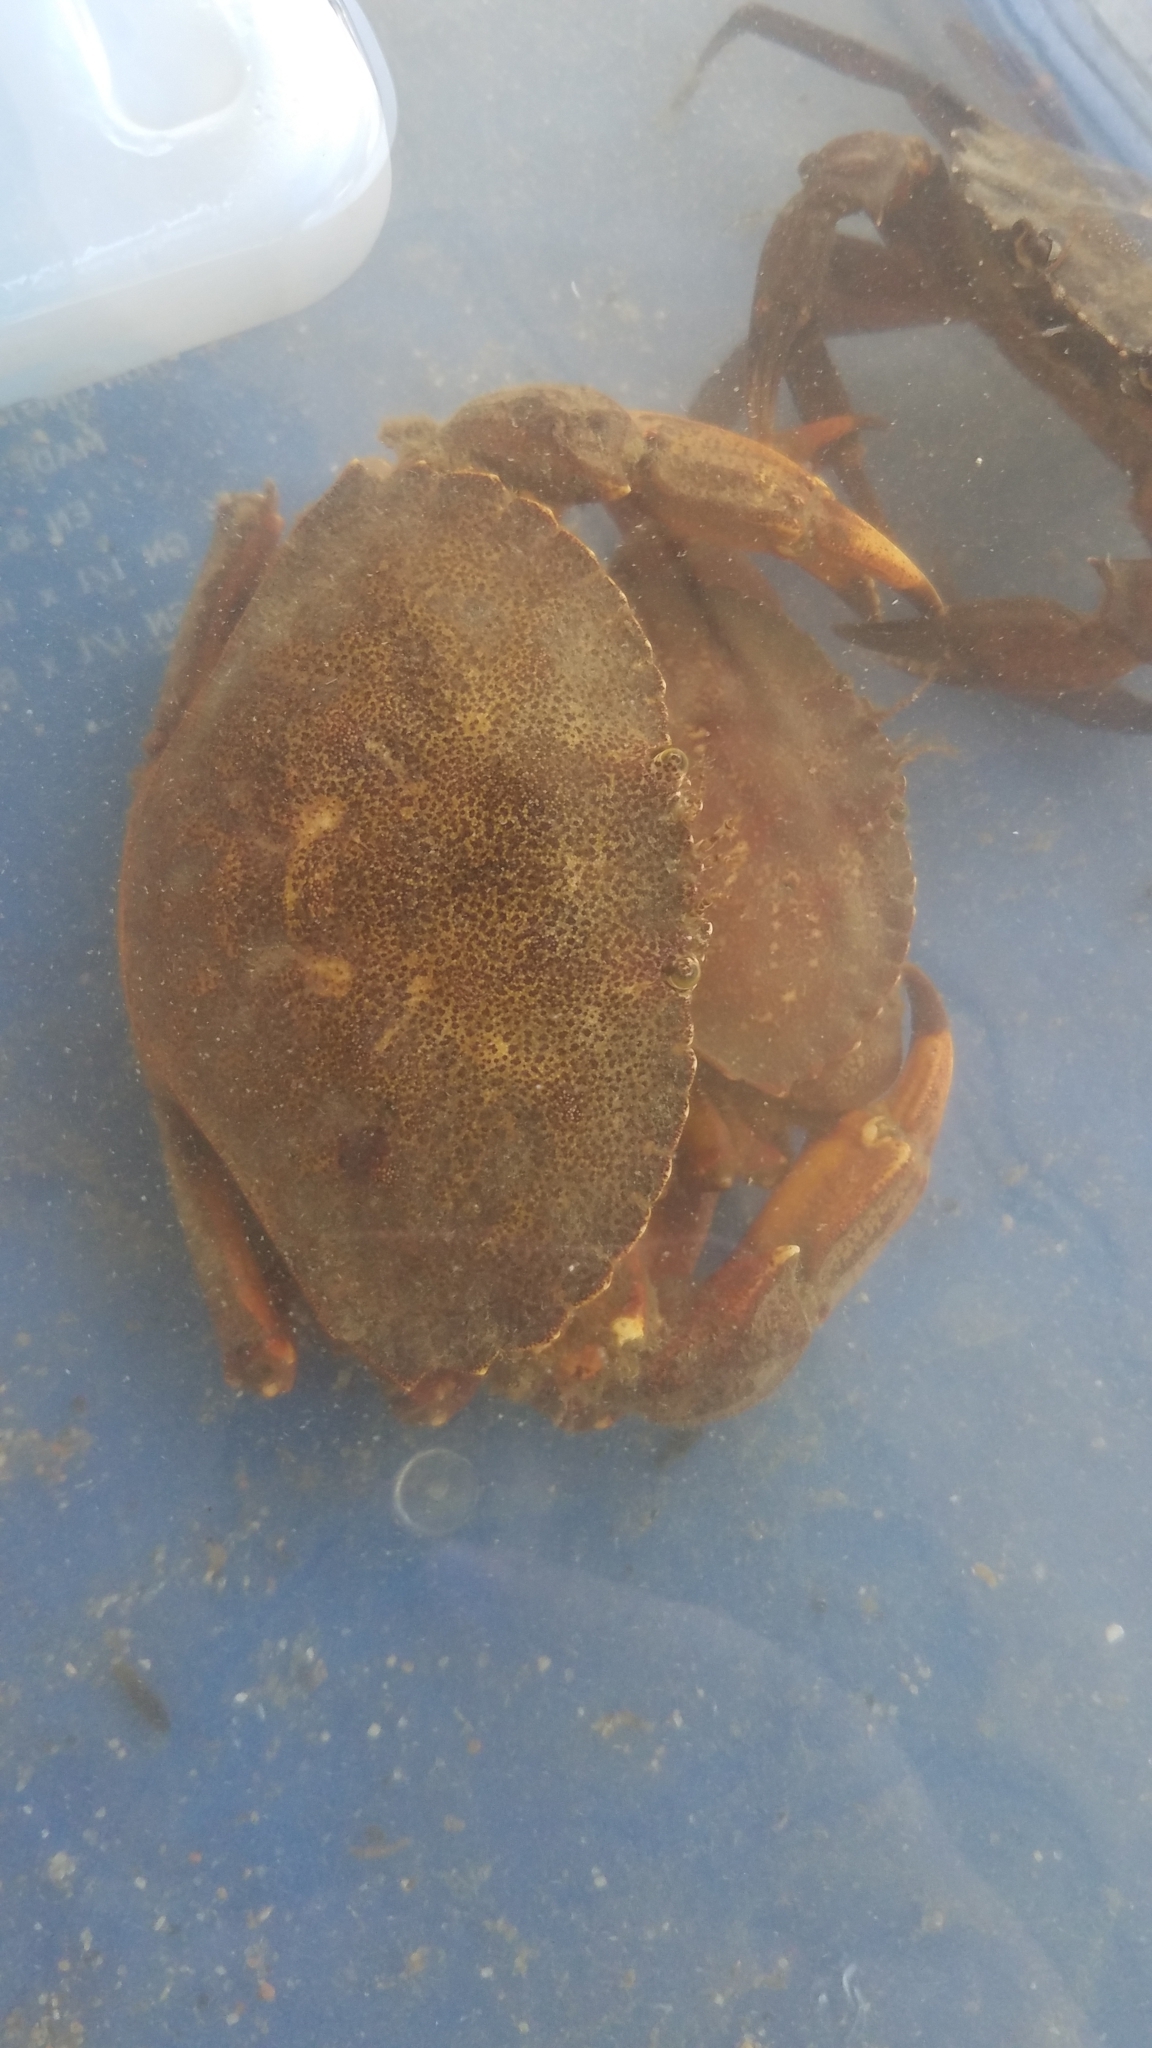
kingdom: Animalia
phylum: Arthropoda
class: Malacostraca
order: Decapoda
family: Cancridae
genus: Cancer
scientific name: Cancer irroratus
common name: Atlantic rock crab
